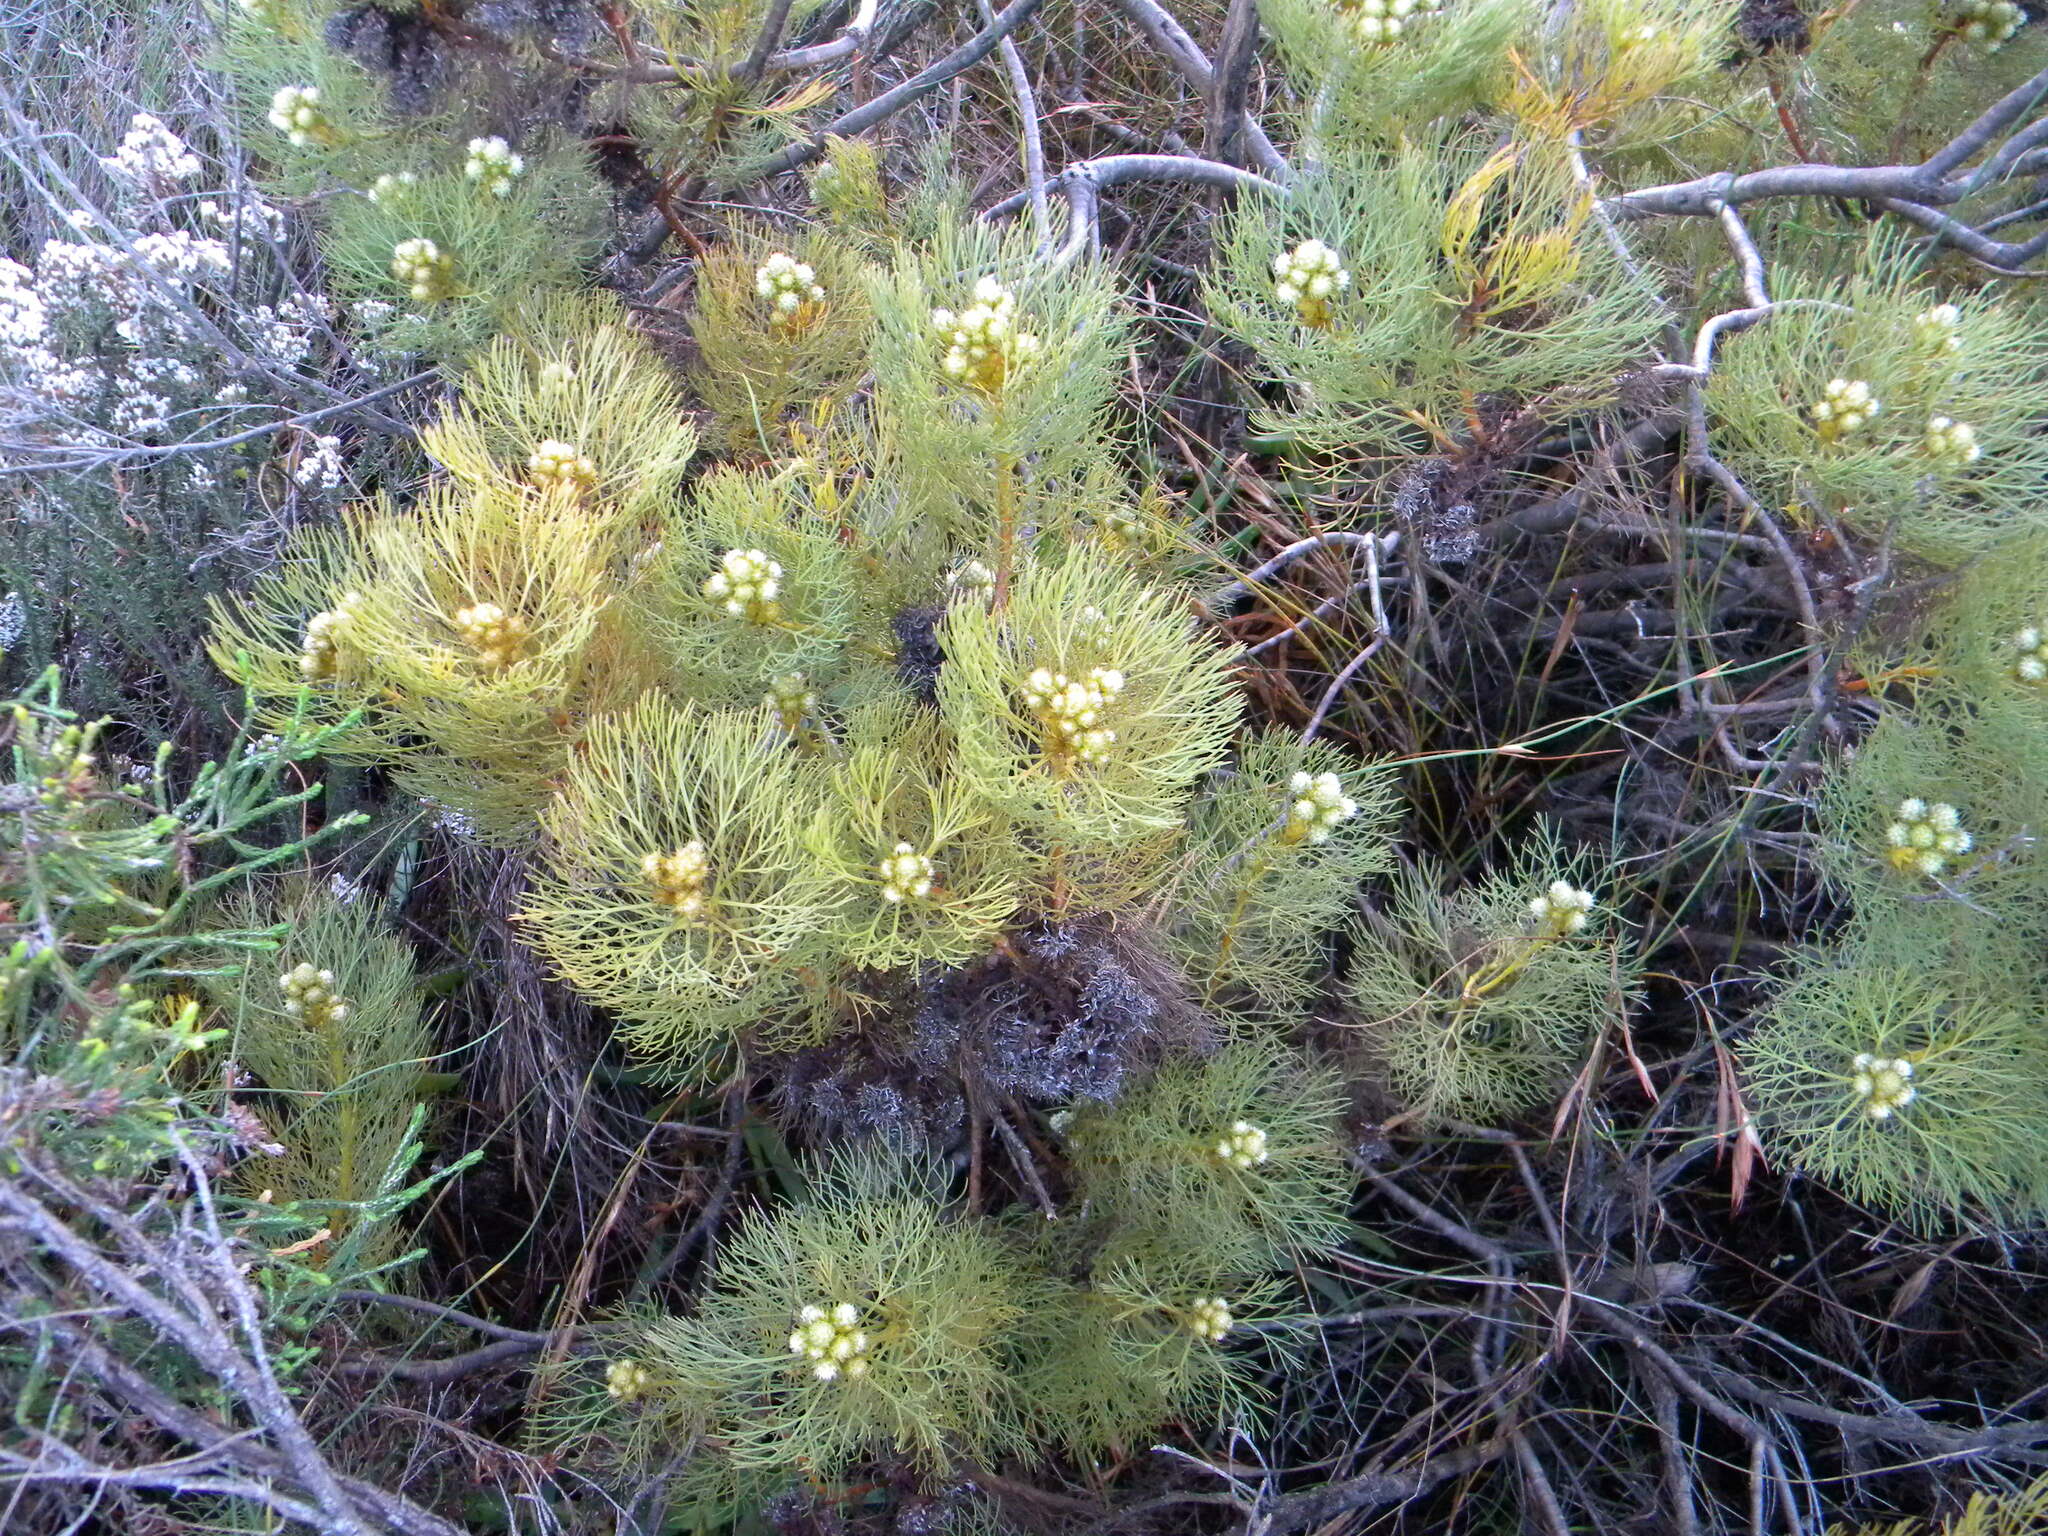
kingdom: Plantae
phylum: Tracheophyta
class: Magnoliopsida
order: Proteales
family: Proteaceae
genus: Serruria
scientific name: Serruria glomerata
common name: Cluster spiderhead
